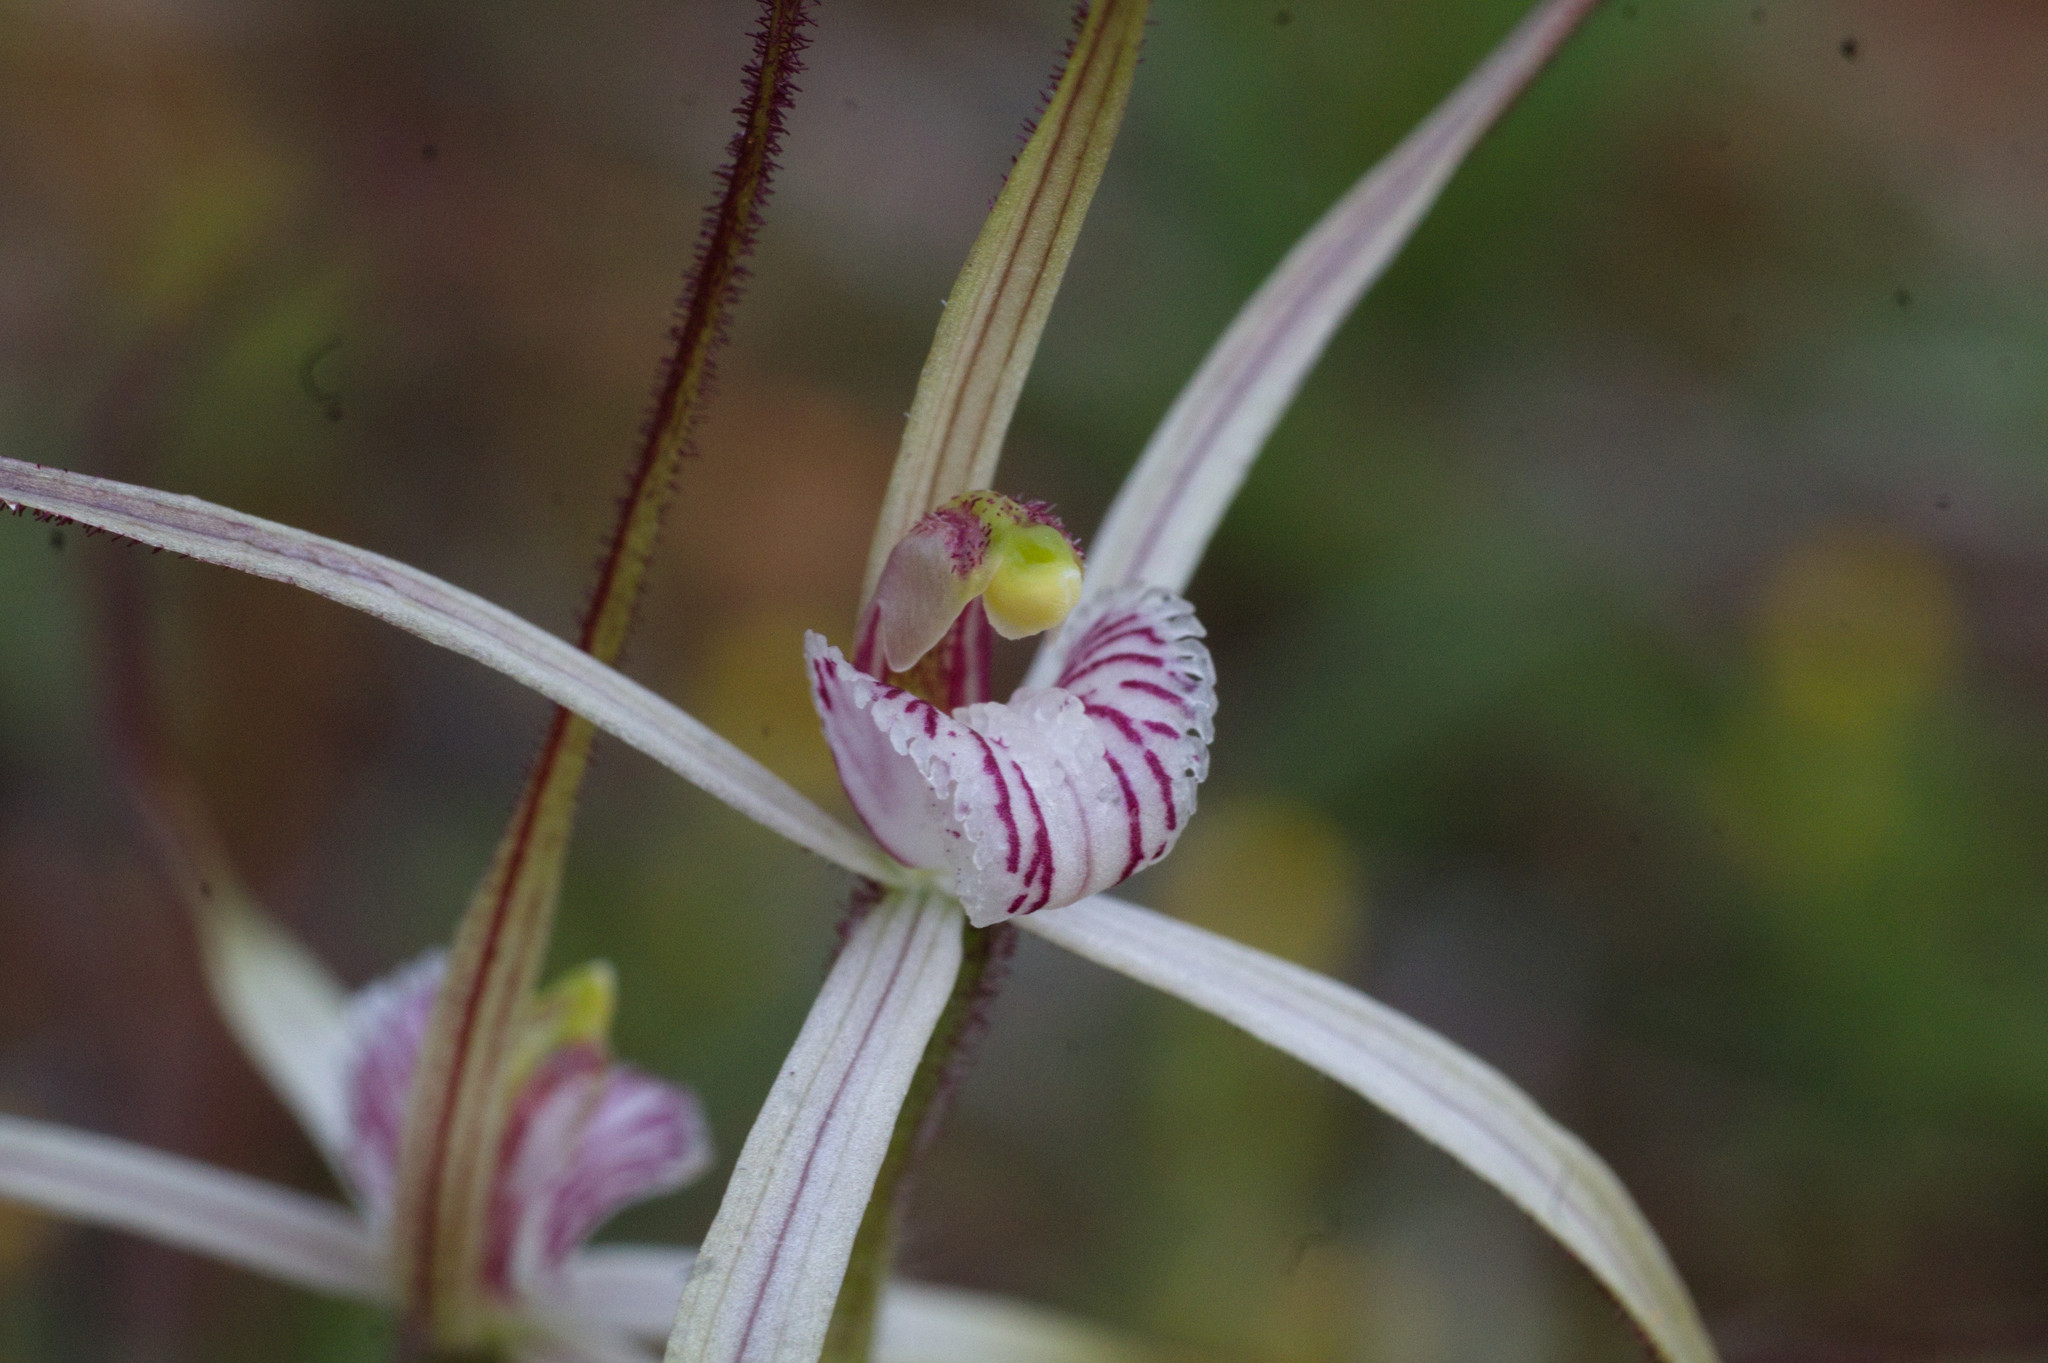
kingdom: Plantae
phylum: Tracheophyta
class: Liliopsida
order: Asparagales
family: Orchidaceae
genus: Caladenia
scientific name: Caladenia varians
